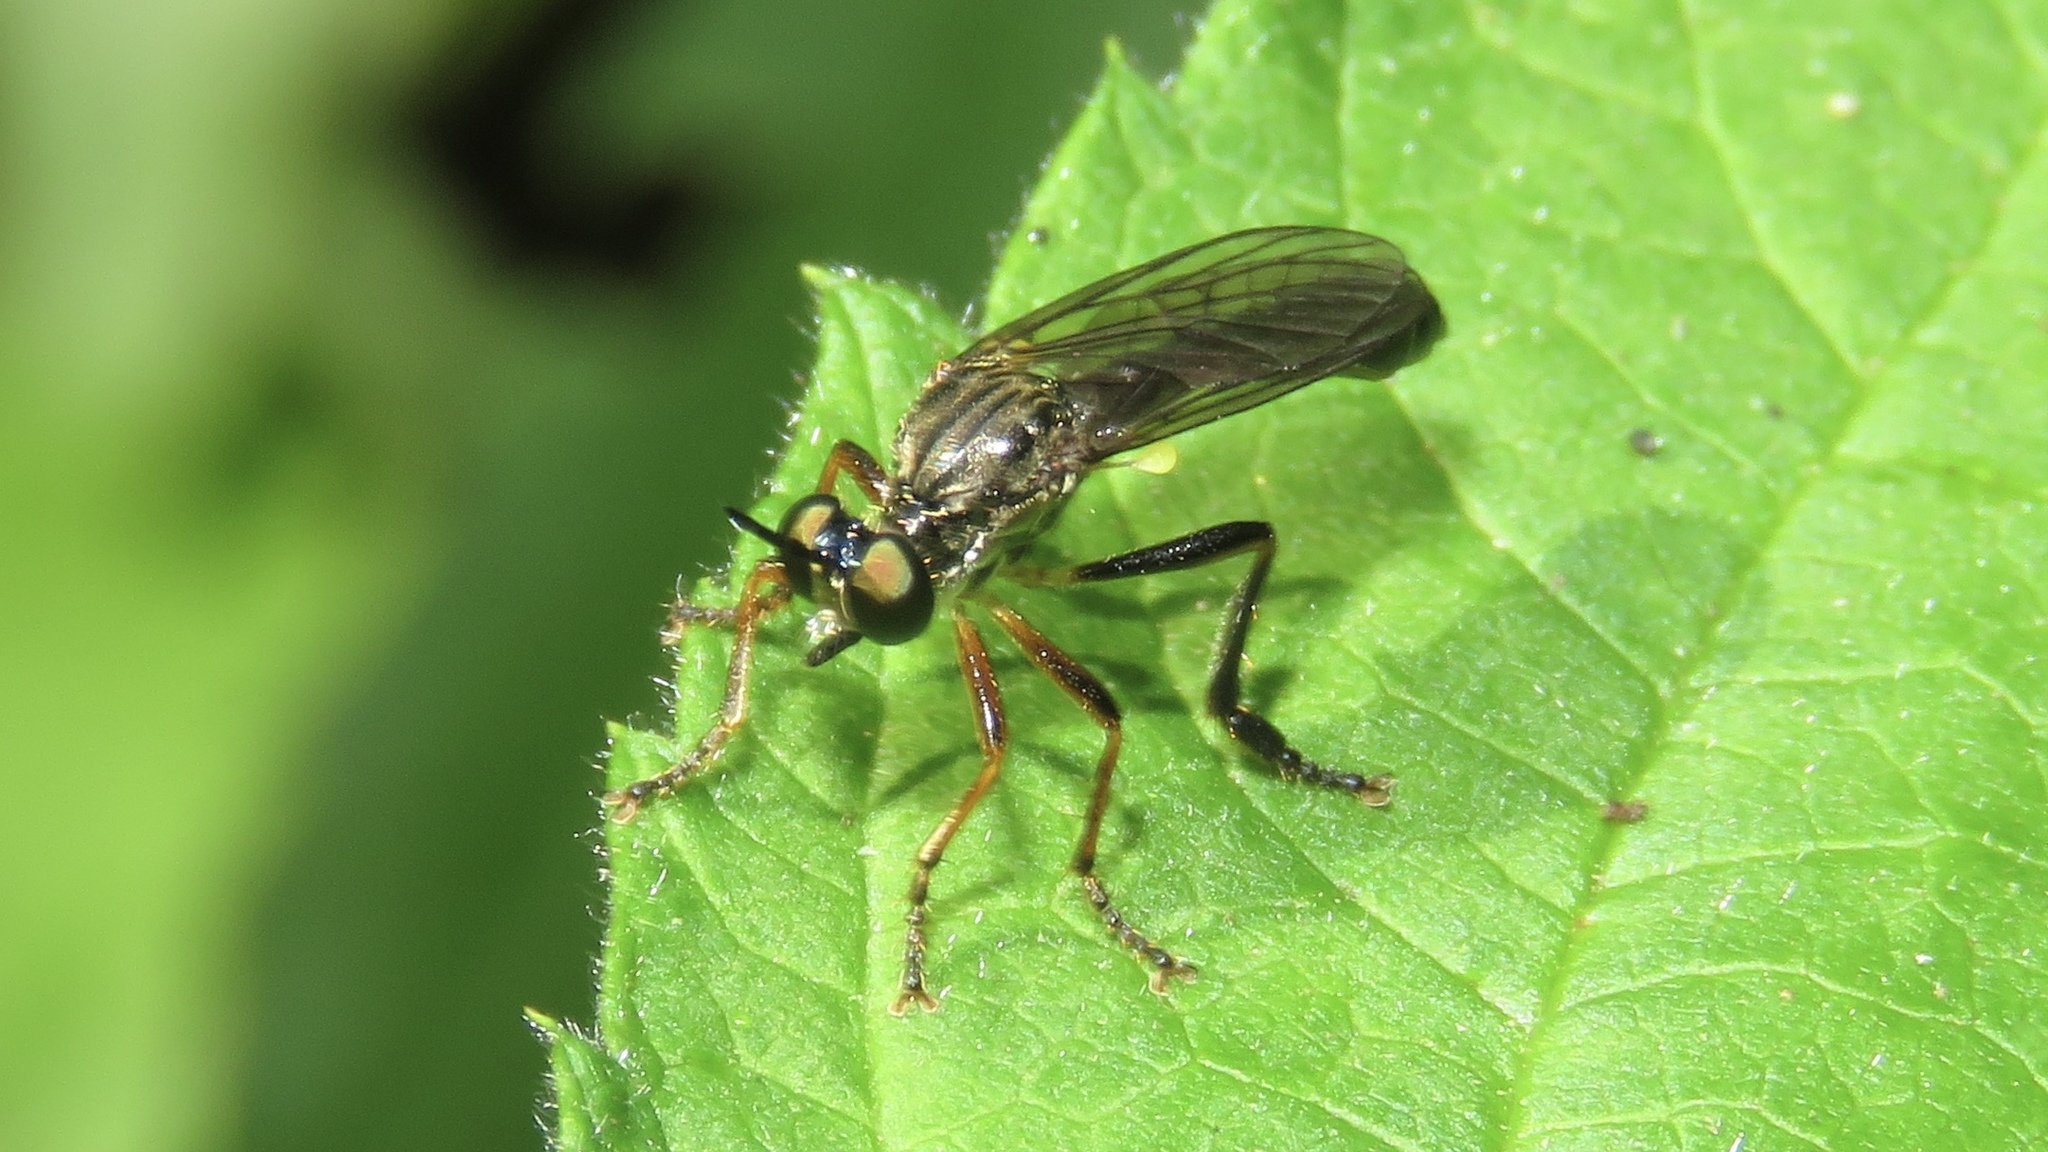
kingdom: Animalia
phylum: Arthropoda
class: Insecta
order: Diptera
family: Asilidae
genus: Dioctria
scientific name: Dioctria hyalipennis
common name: Stripe-legged robberfly
